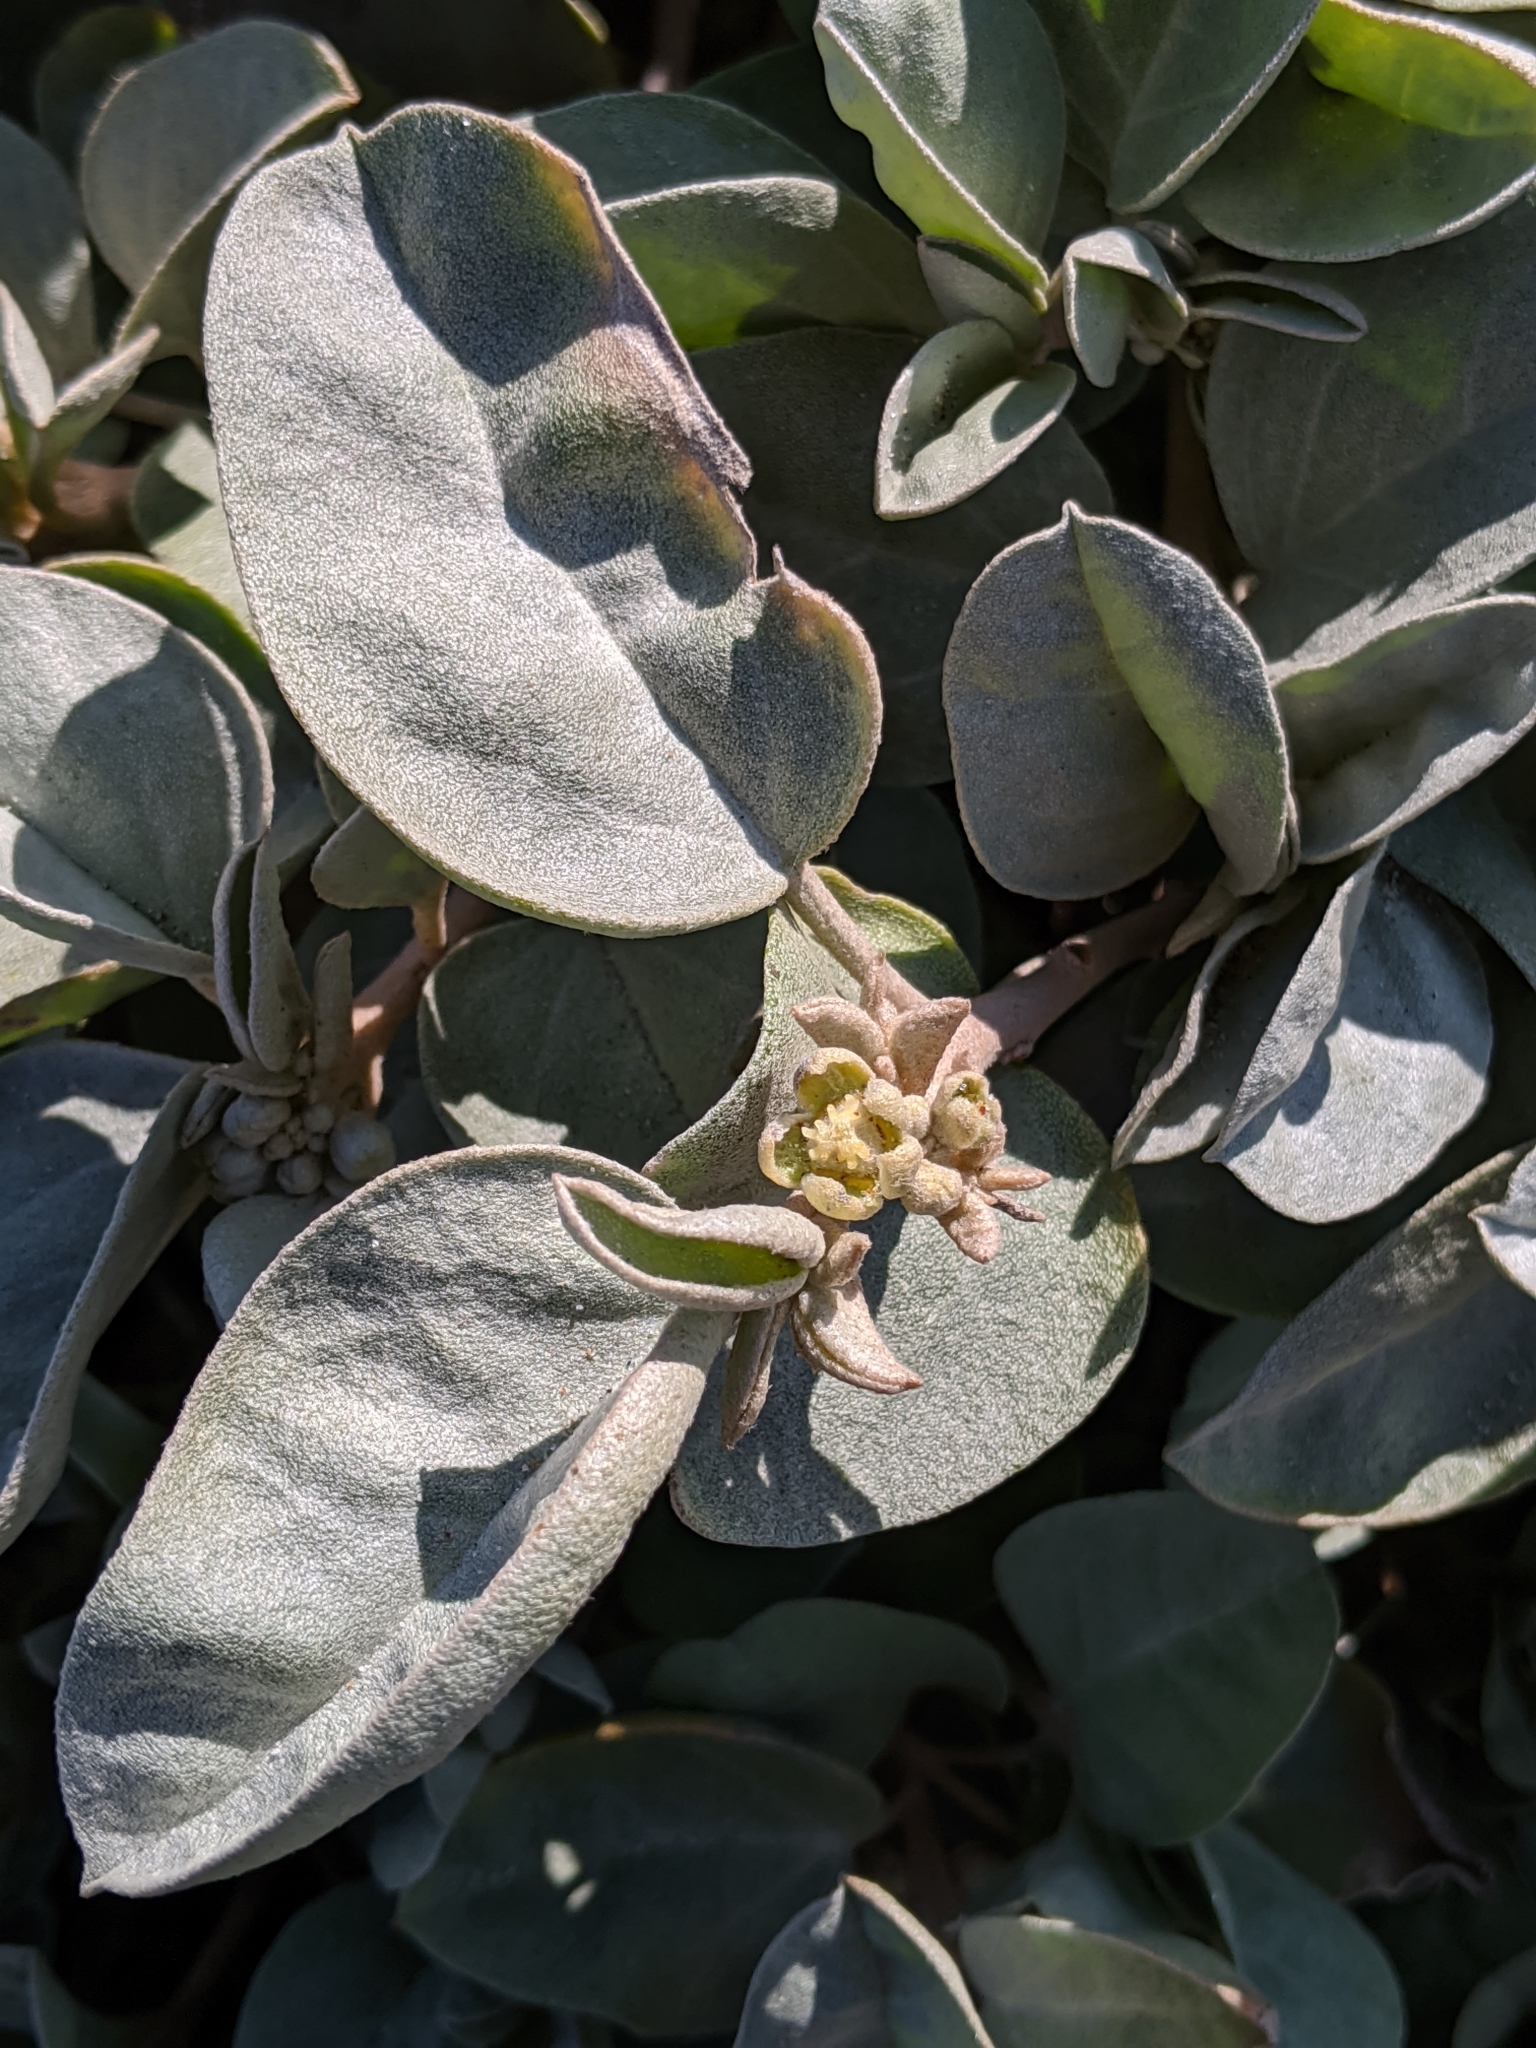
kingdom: Plantae
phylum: Tracheophyta
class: Magnoliopsida
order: Malpighiales
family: Euphorbiaceae
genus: Croton
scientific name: Croton californicus
